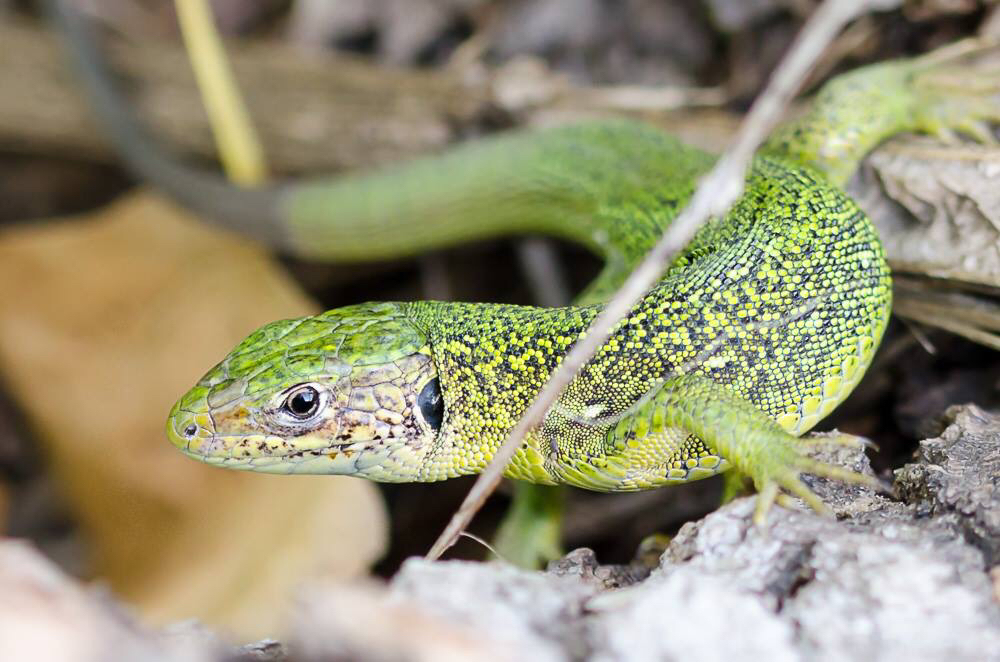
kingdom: Animalia
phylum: Chordata
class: Squamata
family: Lacertidae
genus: Lacerta
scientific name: Lacerta bilineata
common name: Western green lizard
